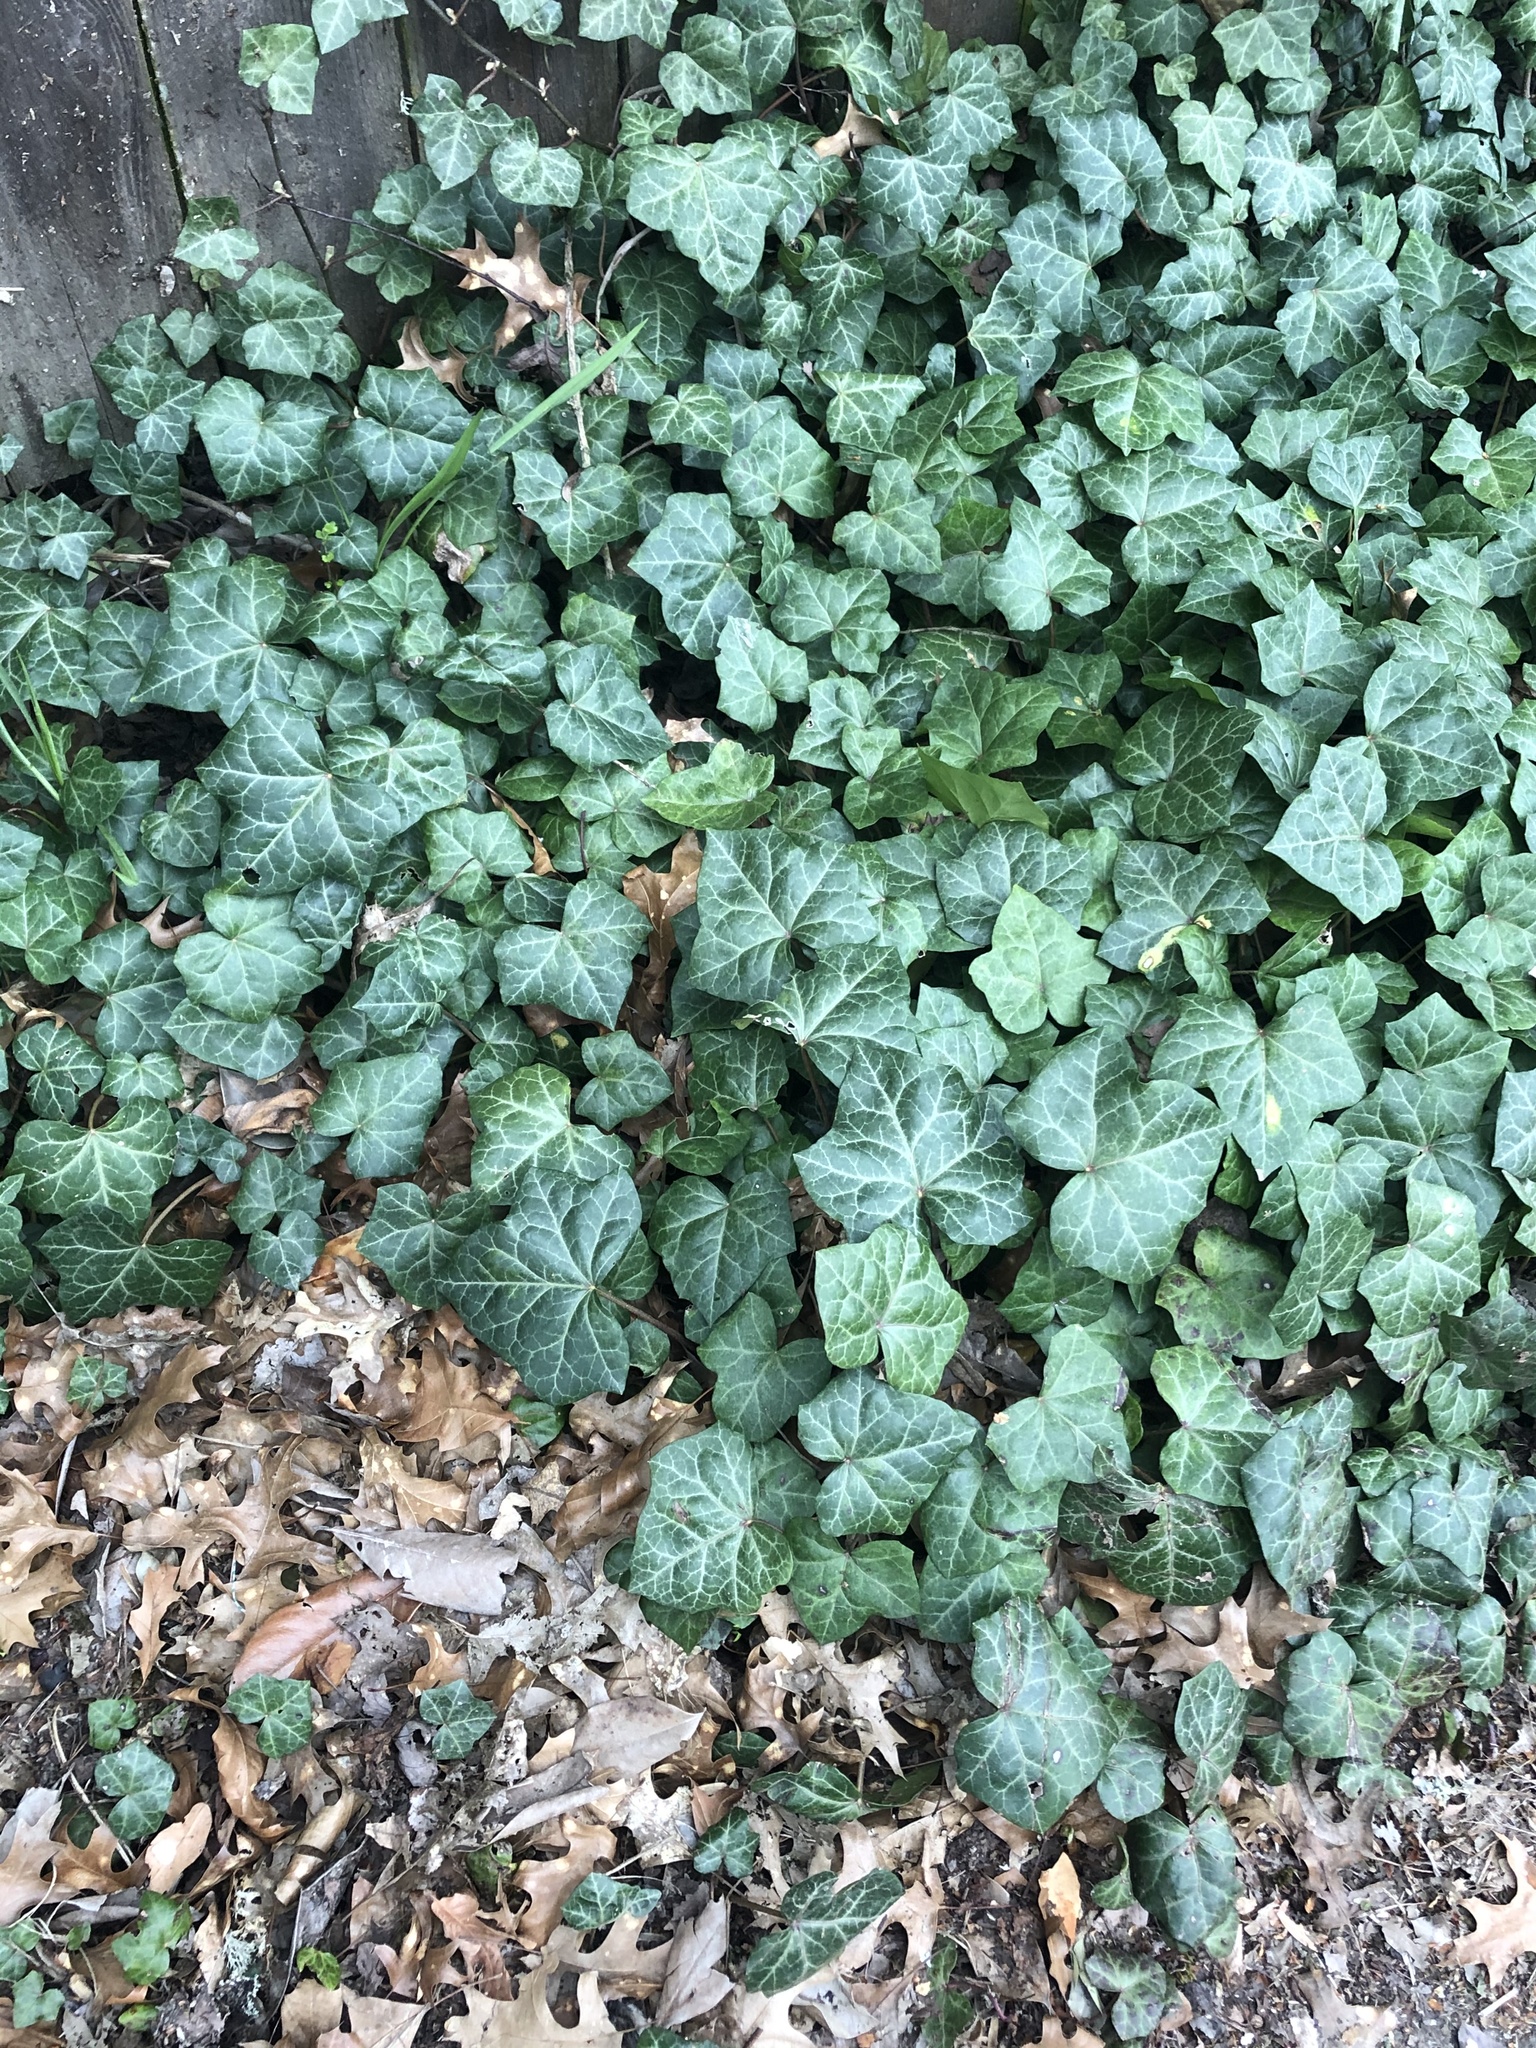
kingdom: Plantae
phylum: Tracheophyta
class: Magnoliopsida
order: Apiales
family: Araliaceae
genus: Hedera
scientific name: Hedera helix
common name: Ivy
